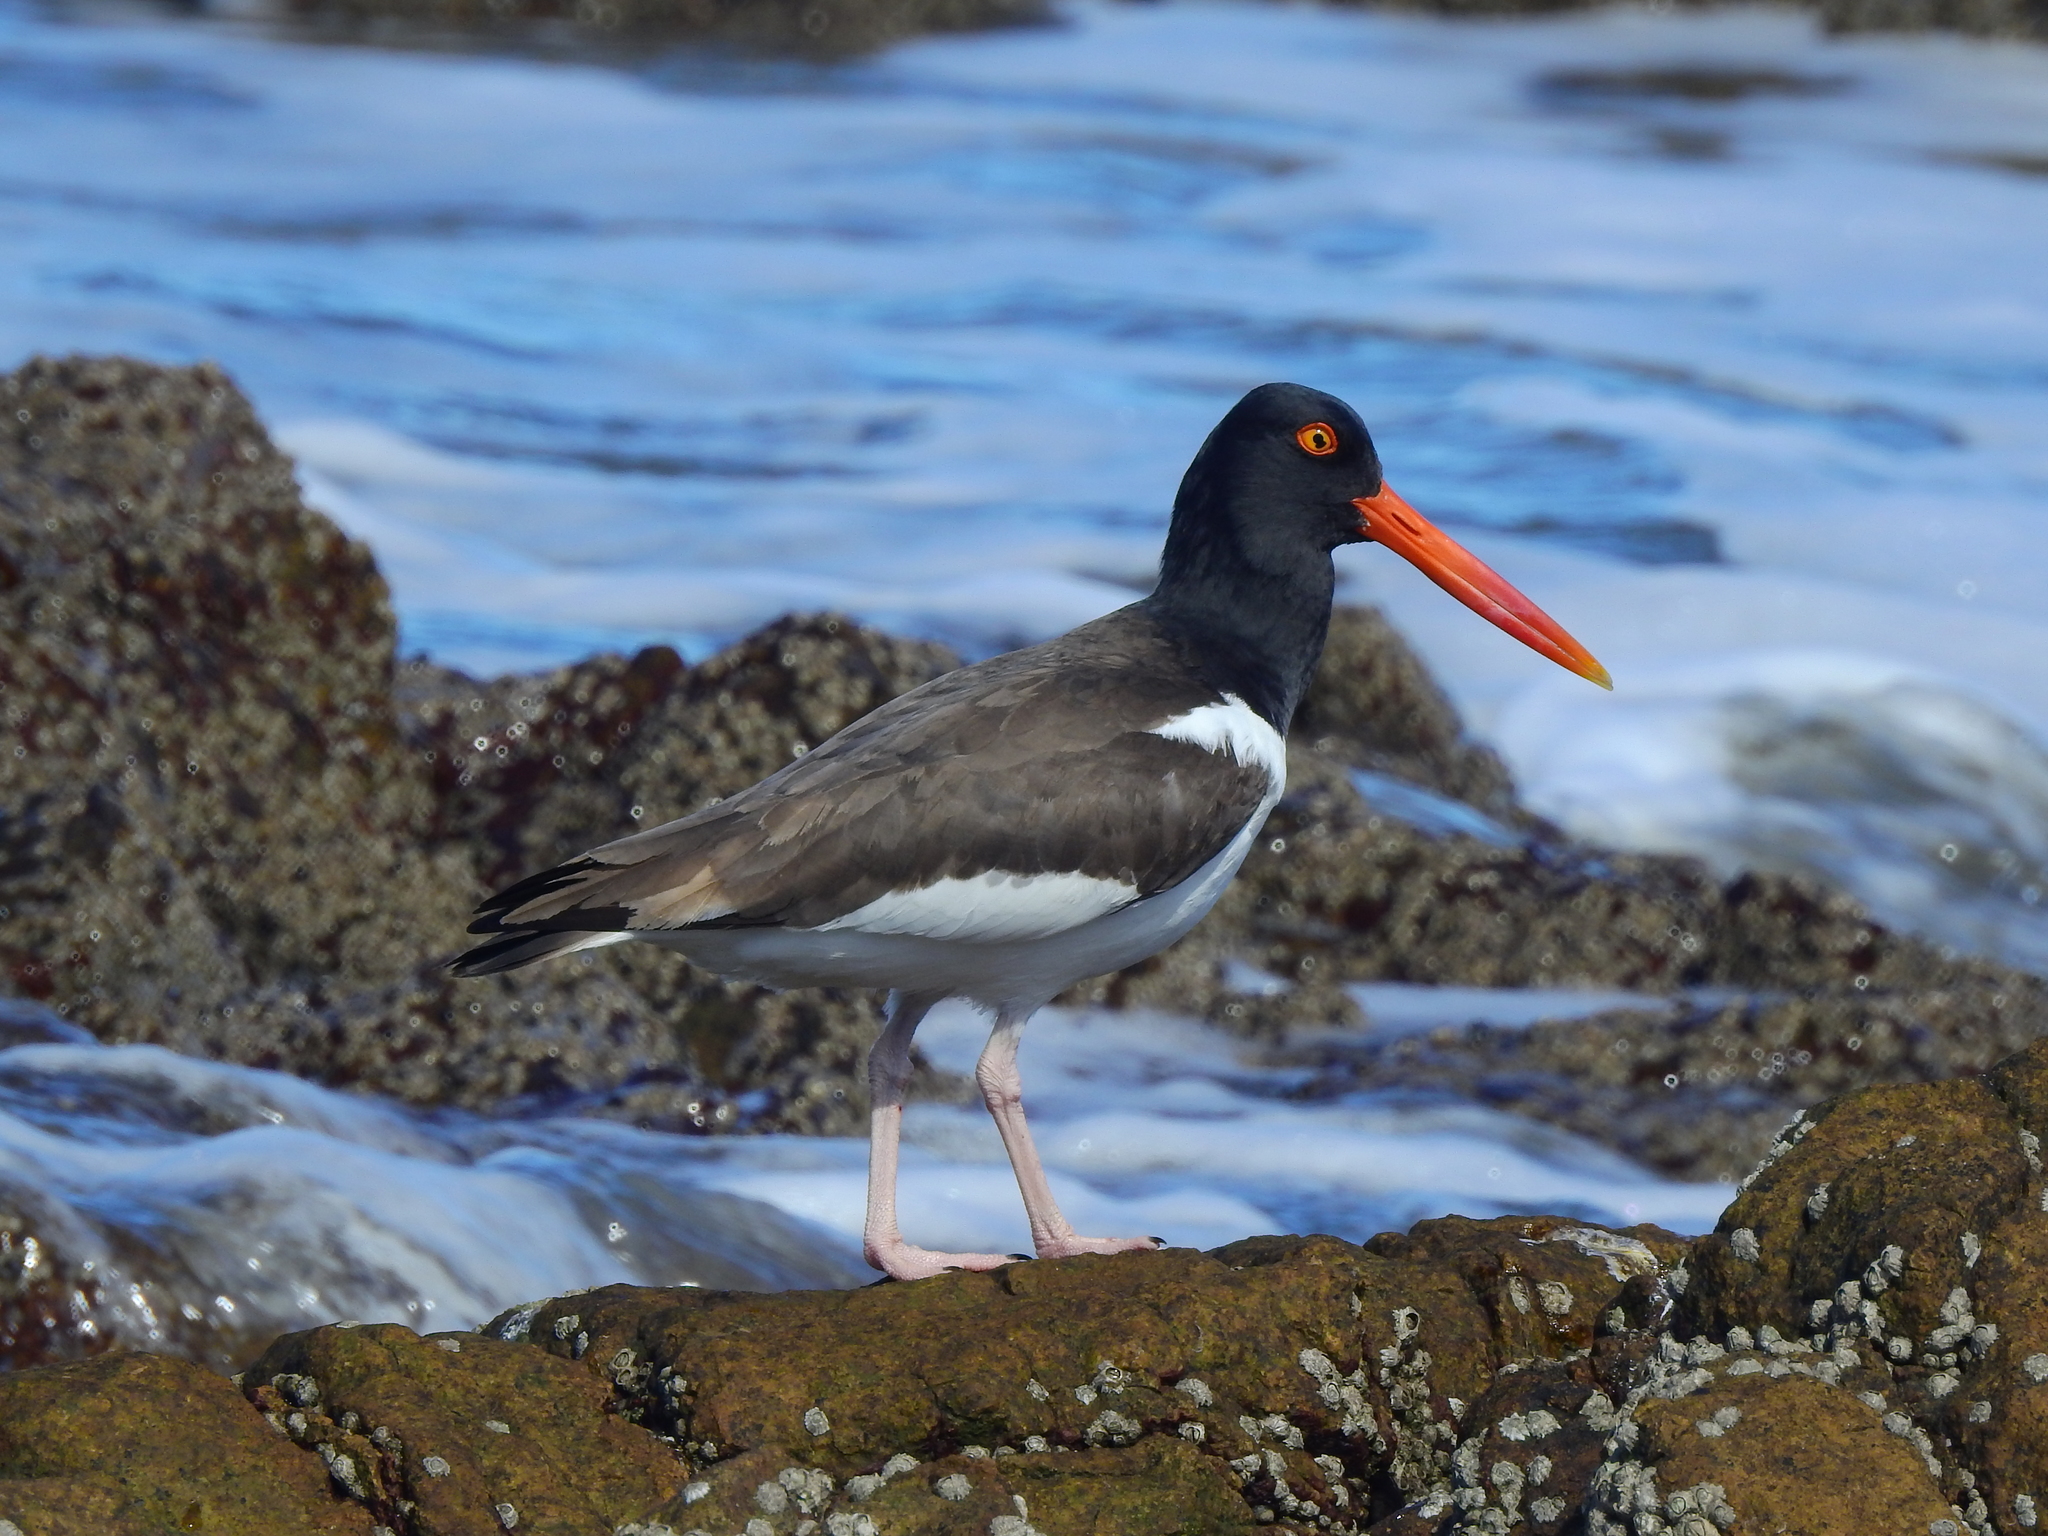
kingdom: Animalia
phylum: Chordata
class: Aves
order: Charadriiformes
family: Haematopodidae
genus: Haematopus
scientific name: Haematopus palliatus
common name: American oystercatcher
